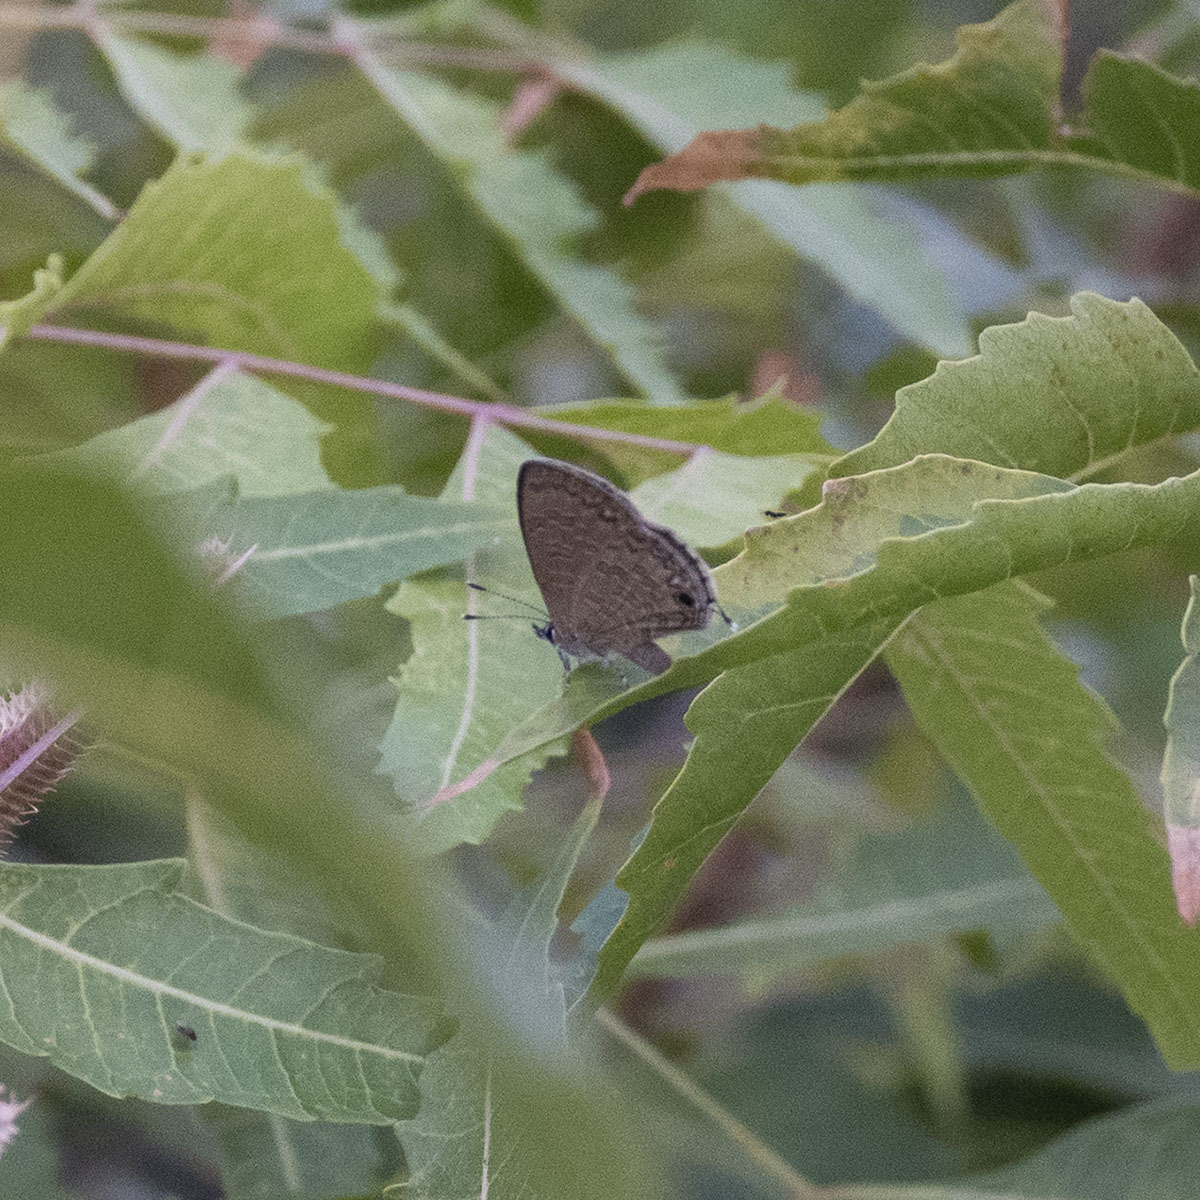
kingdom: Animalia
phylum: Arthropoda
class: Insecta
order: Lepidoptera
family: Lycaenidae
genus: Prosotas
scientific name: Prosotas nora
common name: Common line blue
